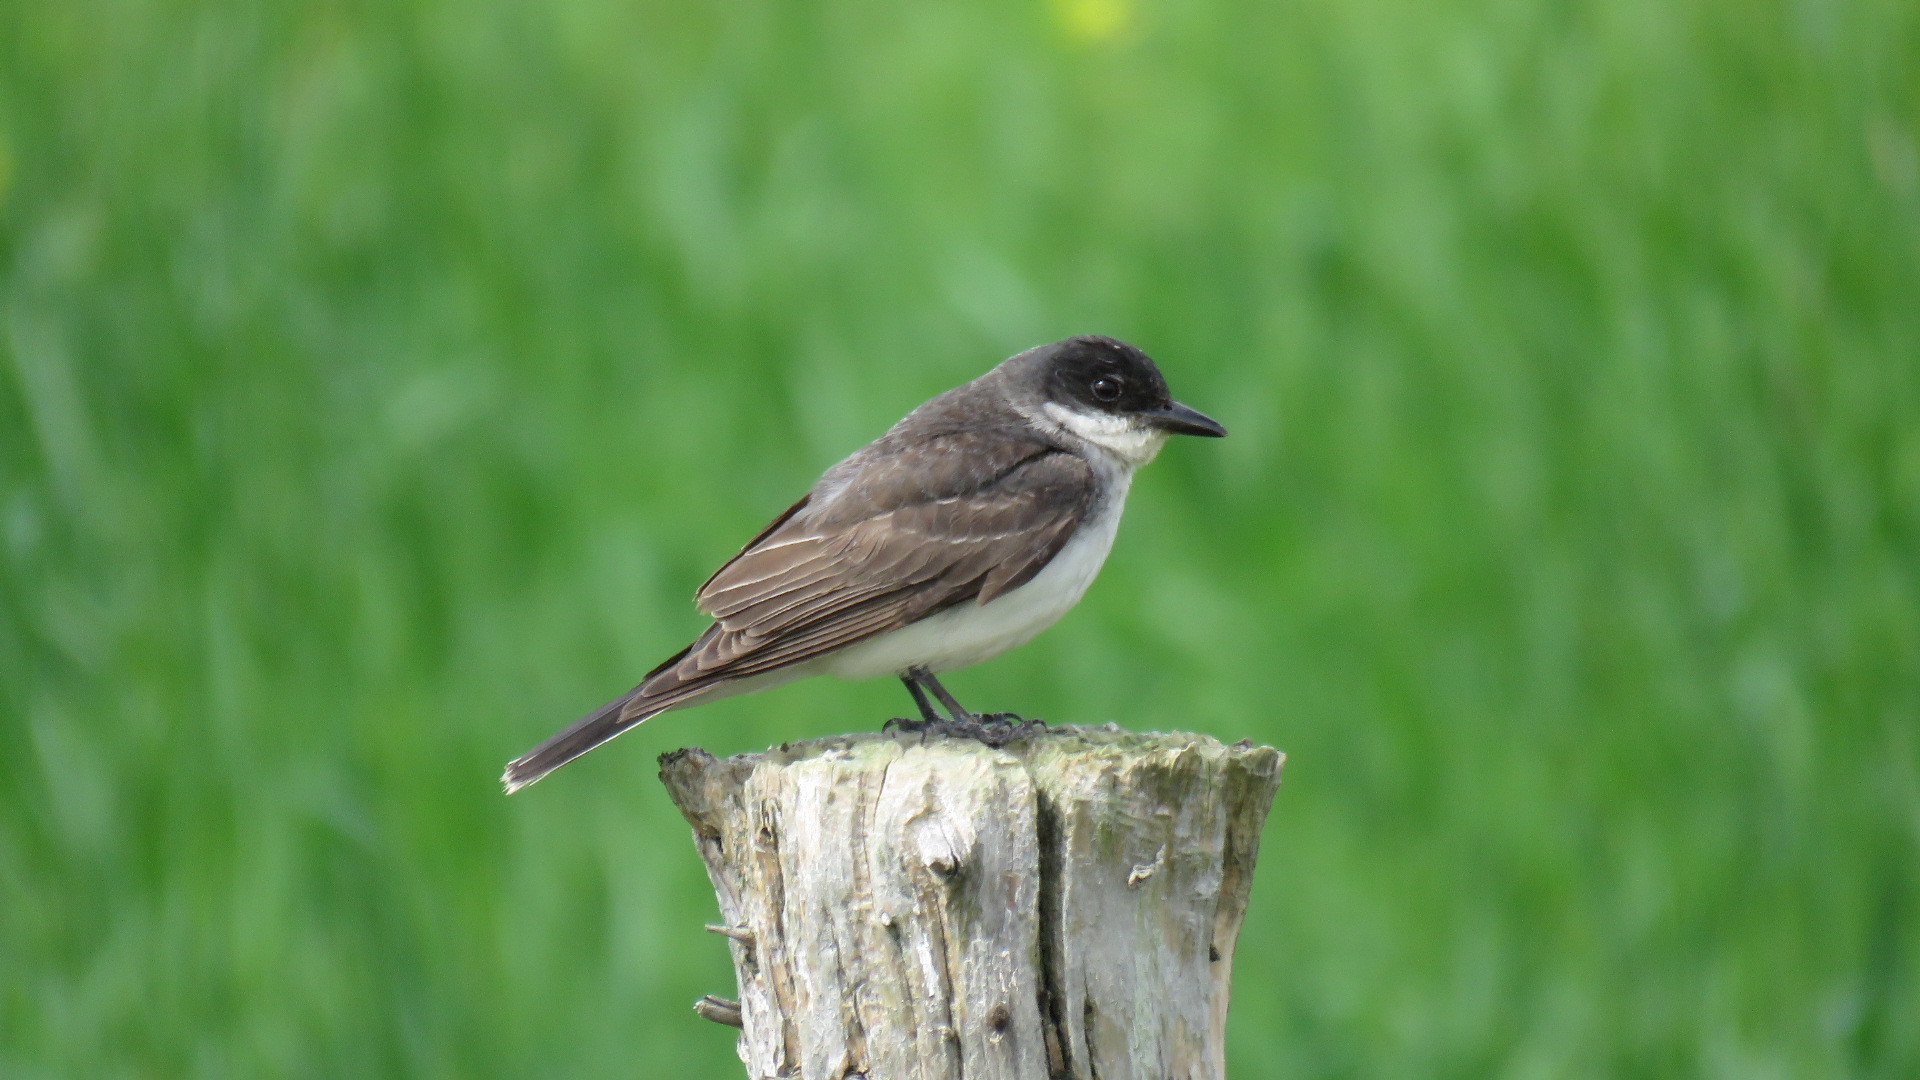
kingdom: Animalia
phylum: Chordata
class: Aves
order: Passeriformes
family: Tyrannidae
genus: Tyrannus
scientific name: Tyrannus tyrannus
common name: Eastern kingbird
